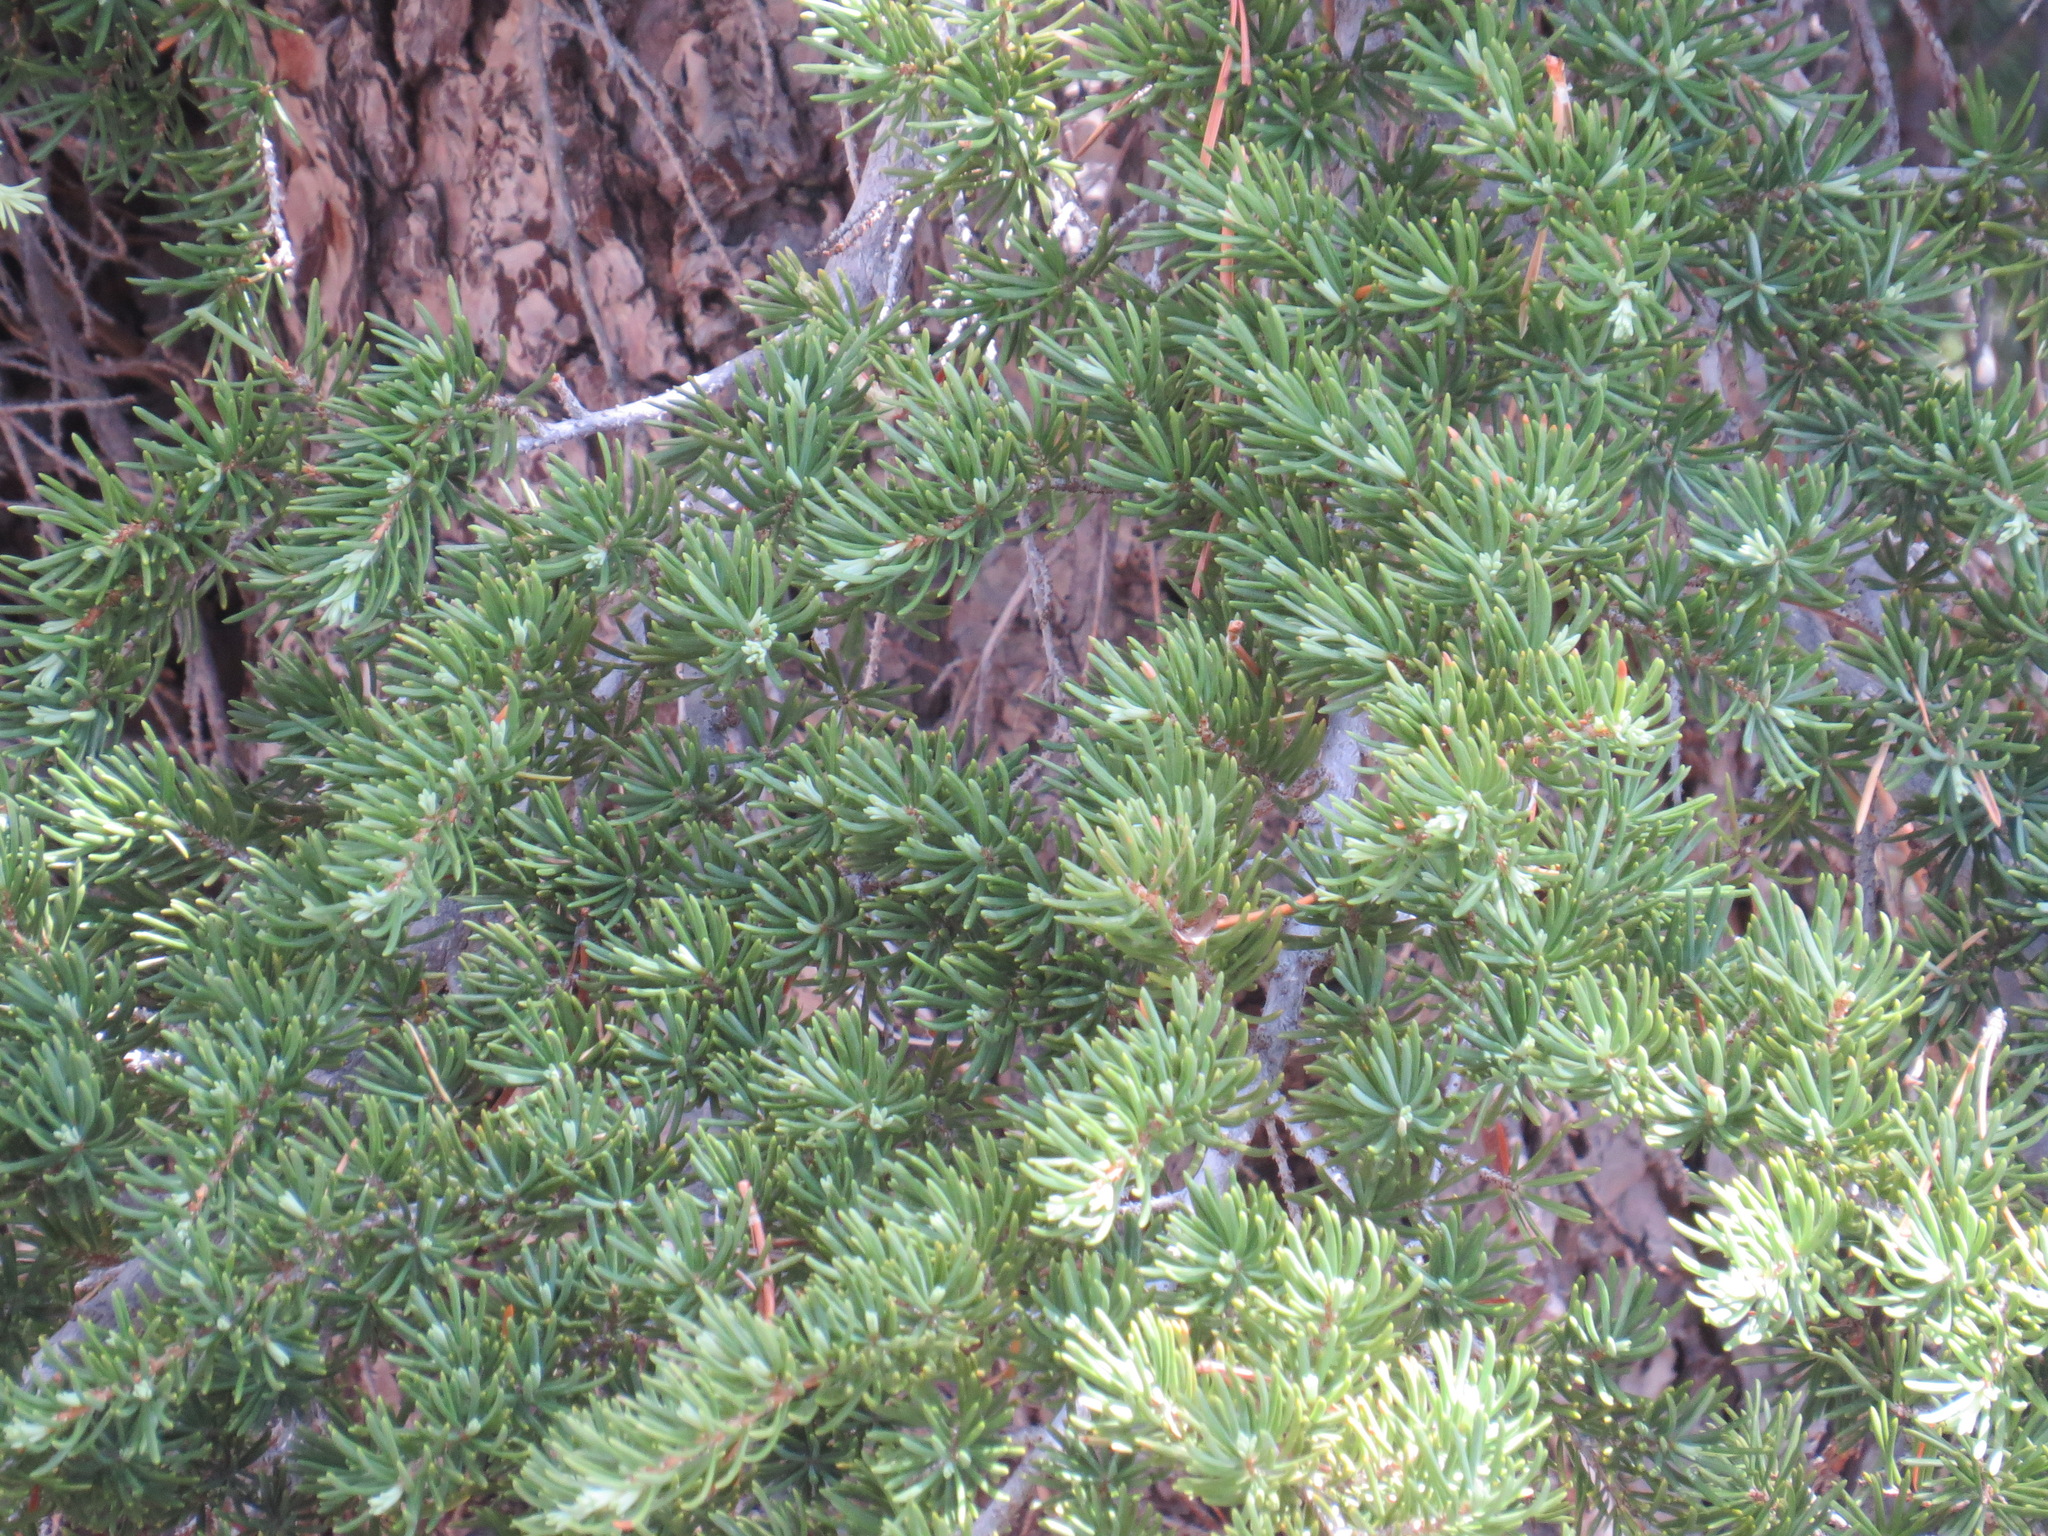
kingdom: Plantae
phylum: Tracheophyta
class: Pinopsida
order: Pinales
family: Pinaceae
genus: Tsuga
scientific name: Tsuga mertensiana
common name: Mountain hemlock
